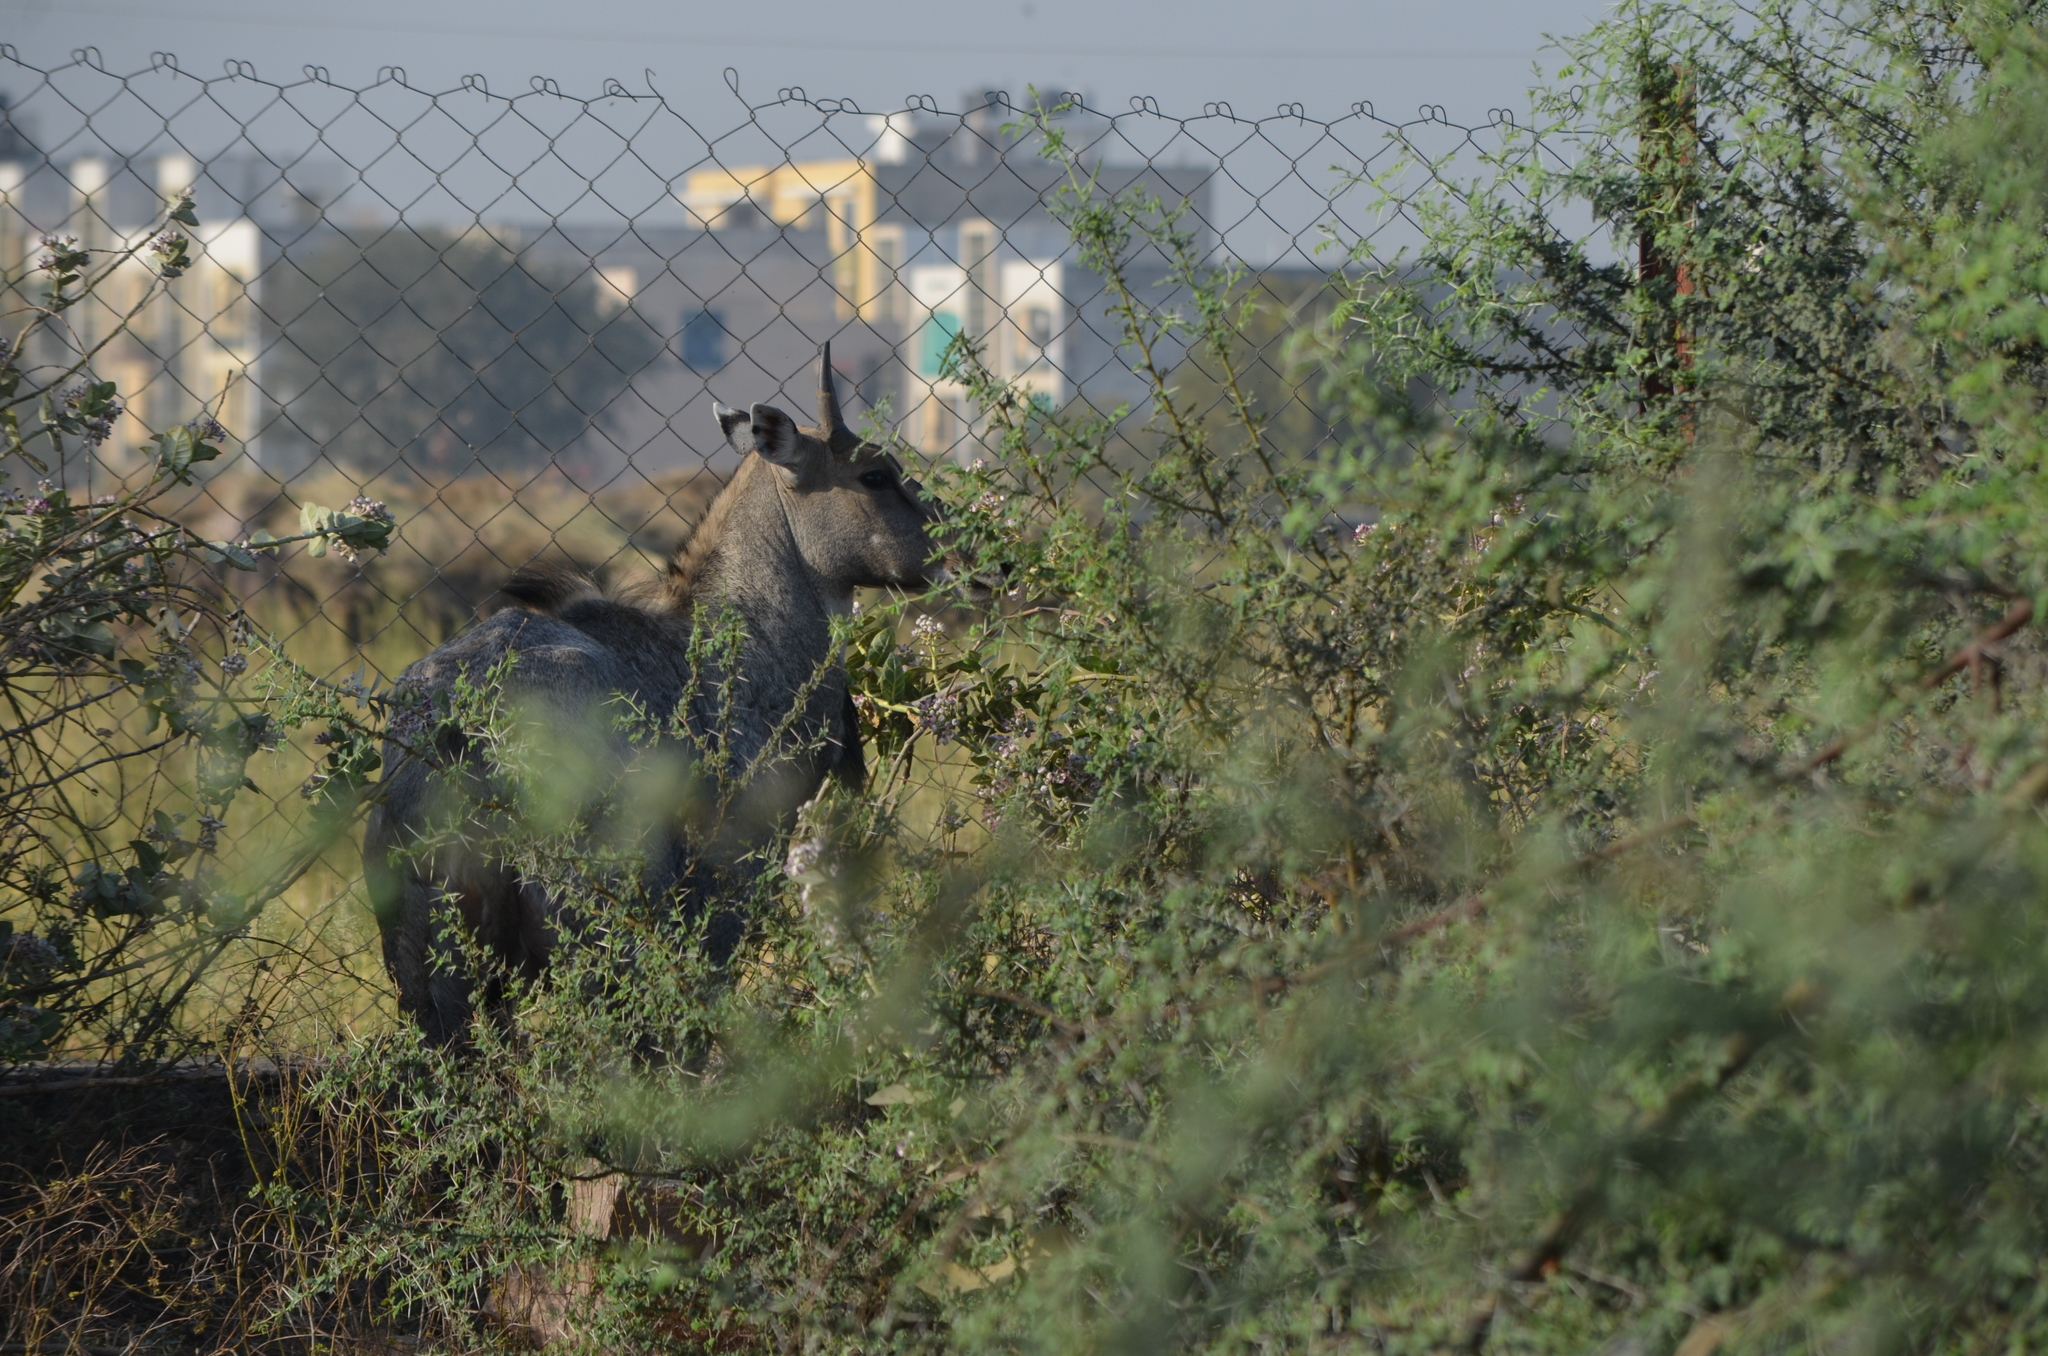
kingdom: Animalia
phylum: Chordata
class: Mammalia
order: Artiodactyla
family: Bovidae
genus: Boselaphus
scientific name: Boselaphus tragocamelus
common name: Nilgai
